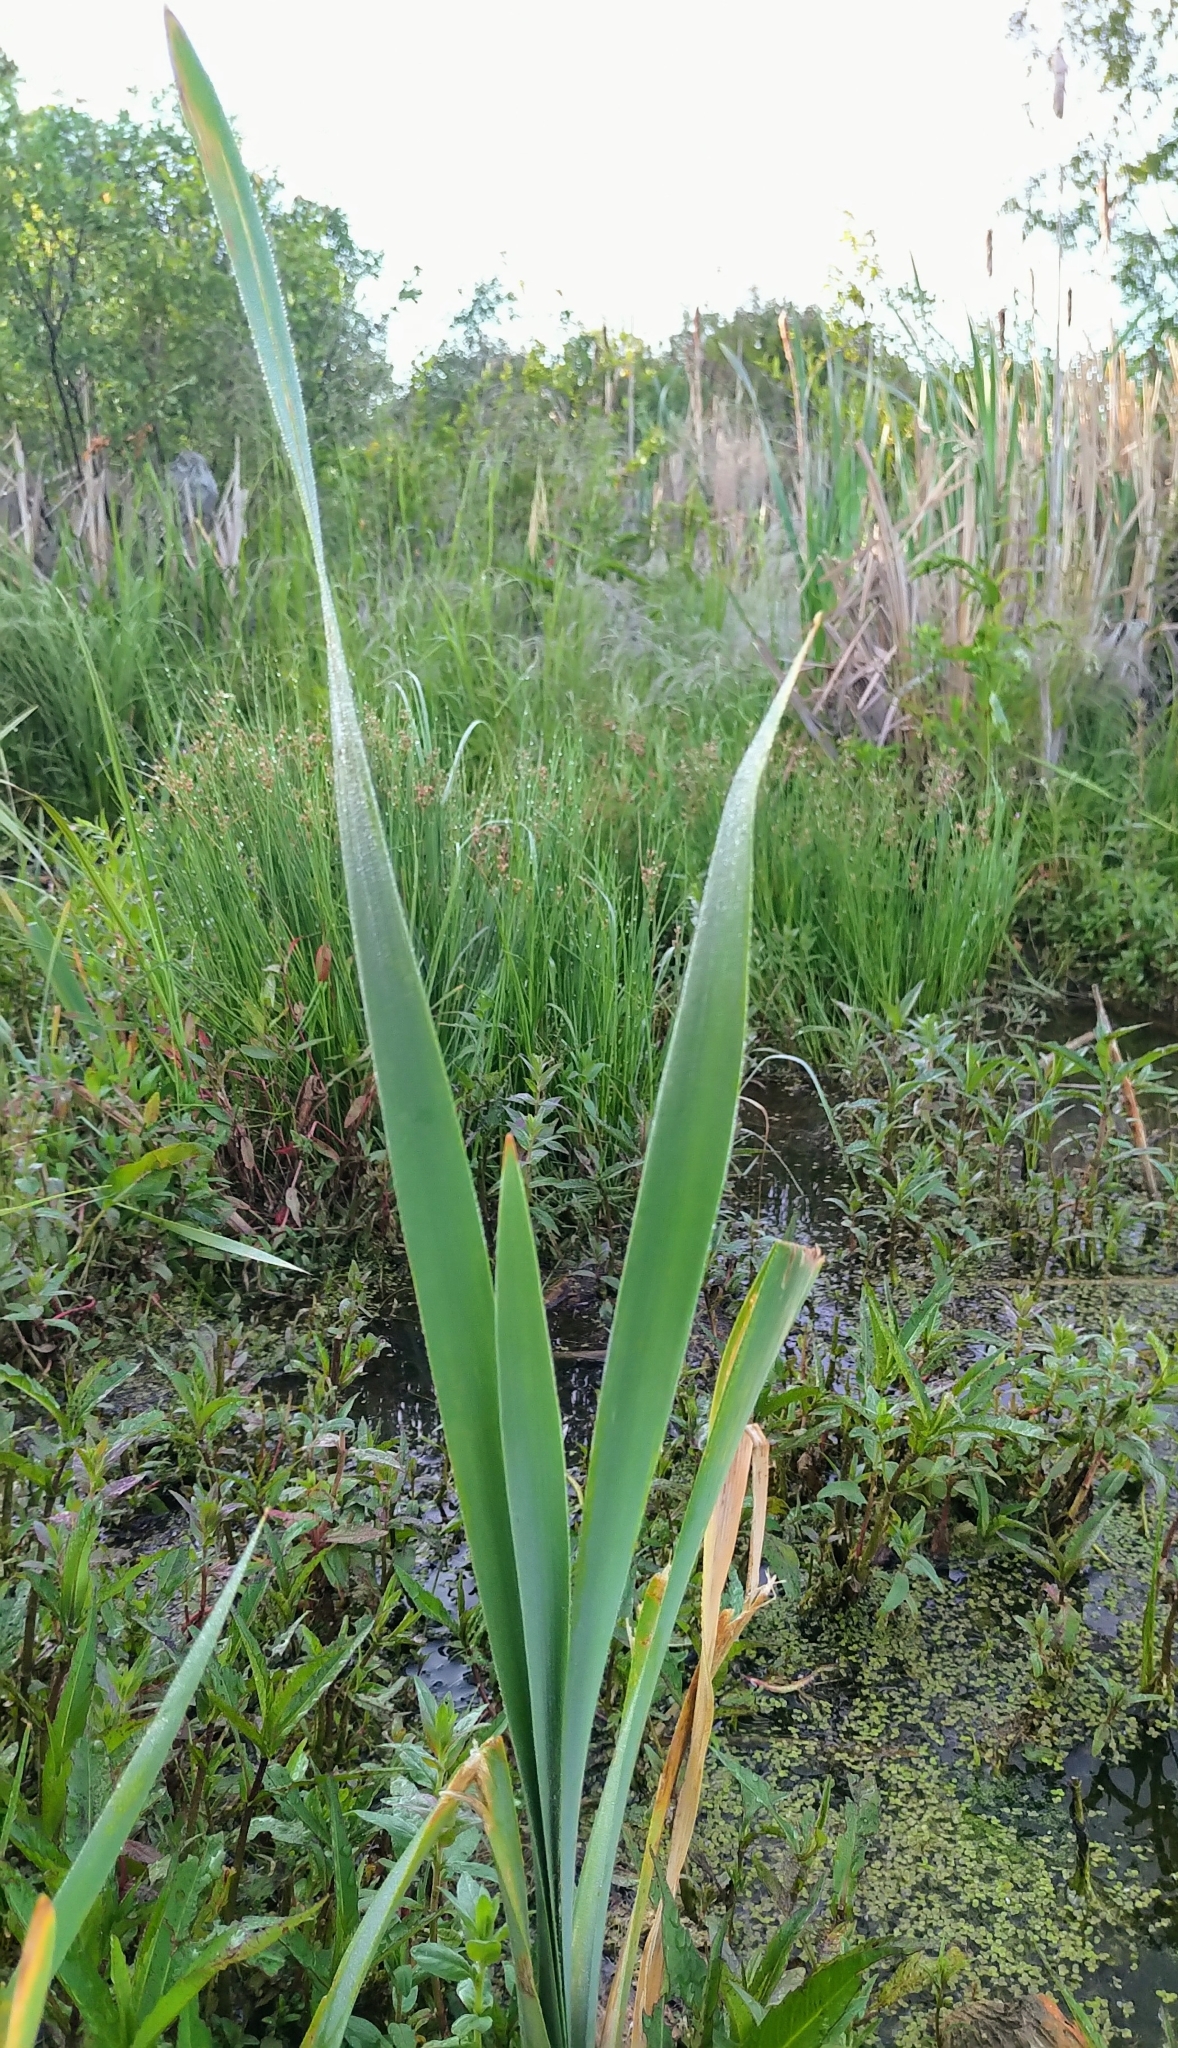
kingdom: Plantae
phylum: Tracheophyta
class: Liliopsida
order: Poales
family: Typhaceae
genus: Typha
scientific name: Typha latifolia
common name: Broadleaf cattail
